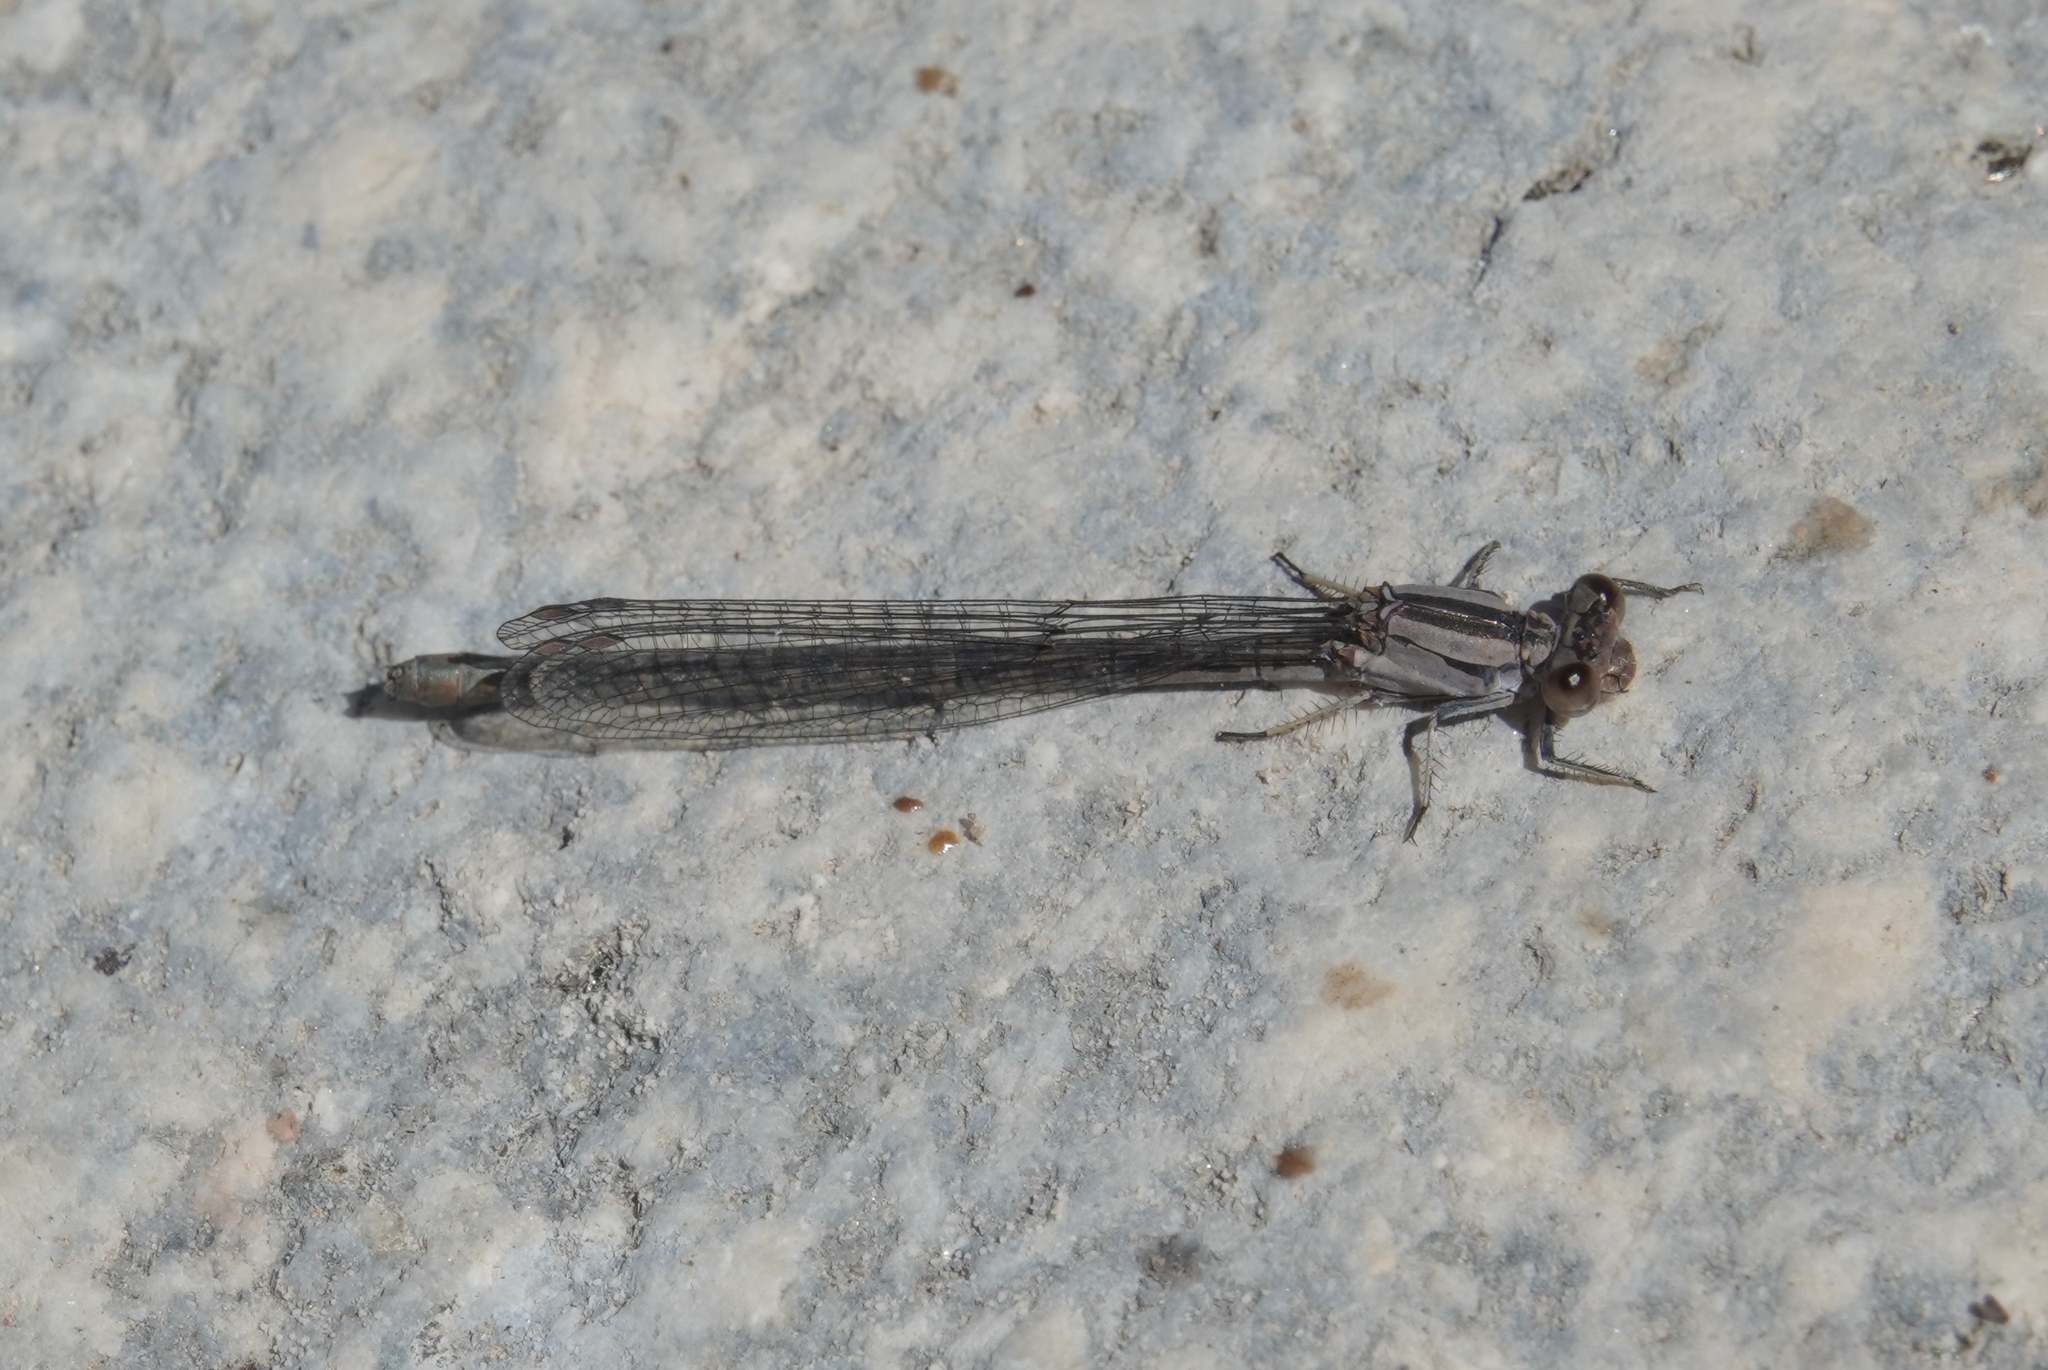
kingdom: Animalia
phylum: Arthropoda
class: Insecta
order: Odonata
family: Coenagrionidae
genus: Argia
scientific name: Argia vivida
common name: Vivid dancer
